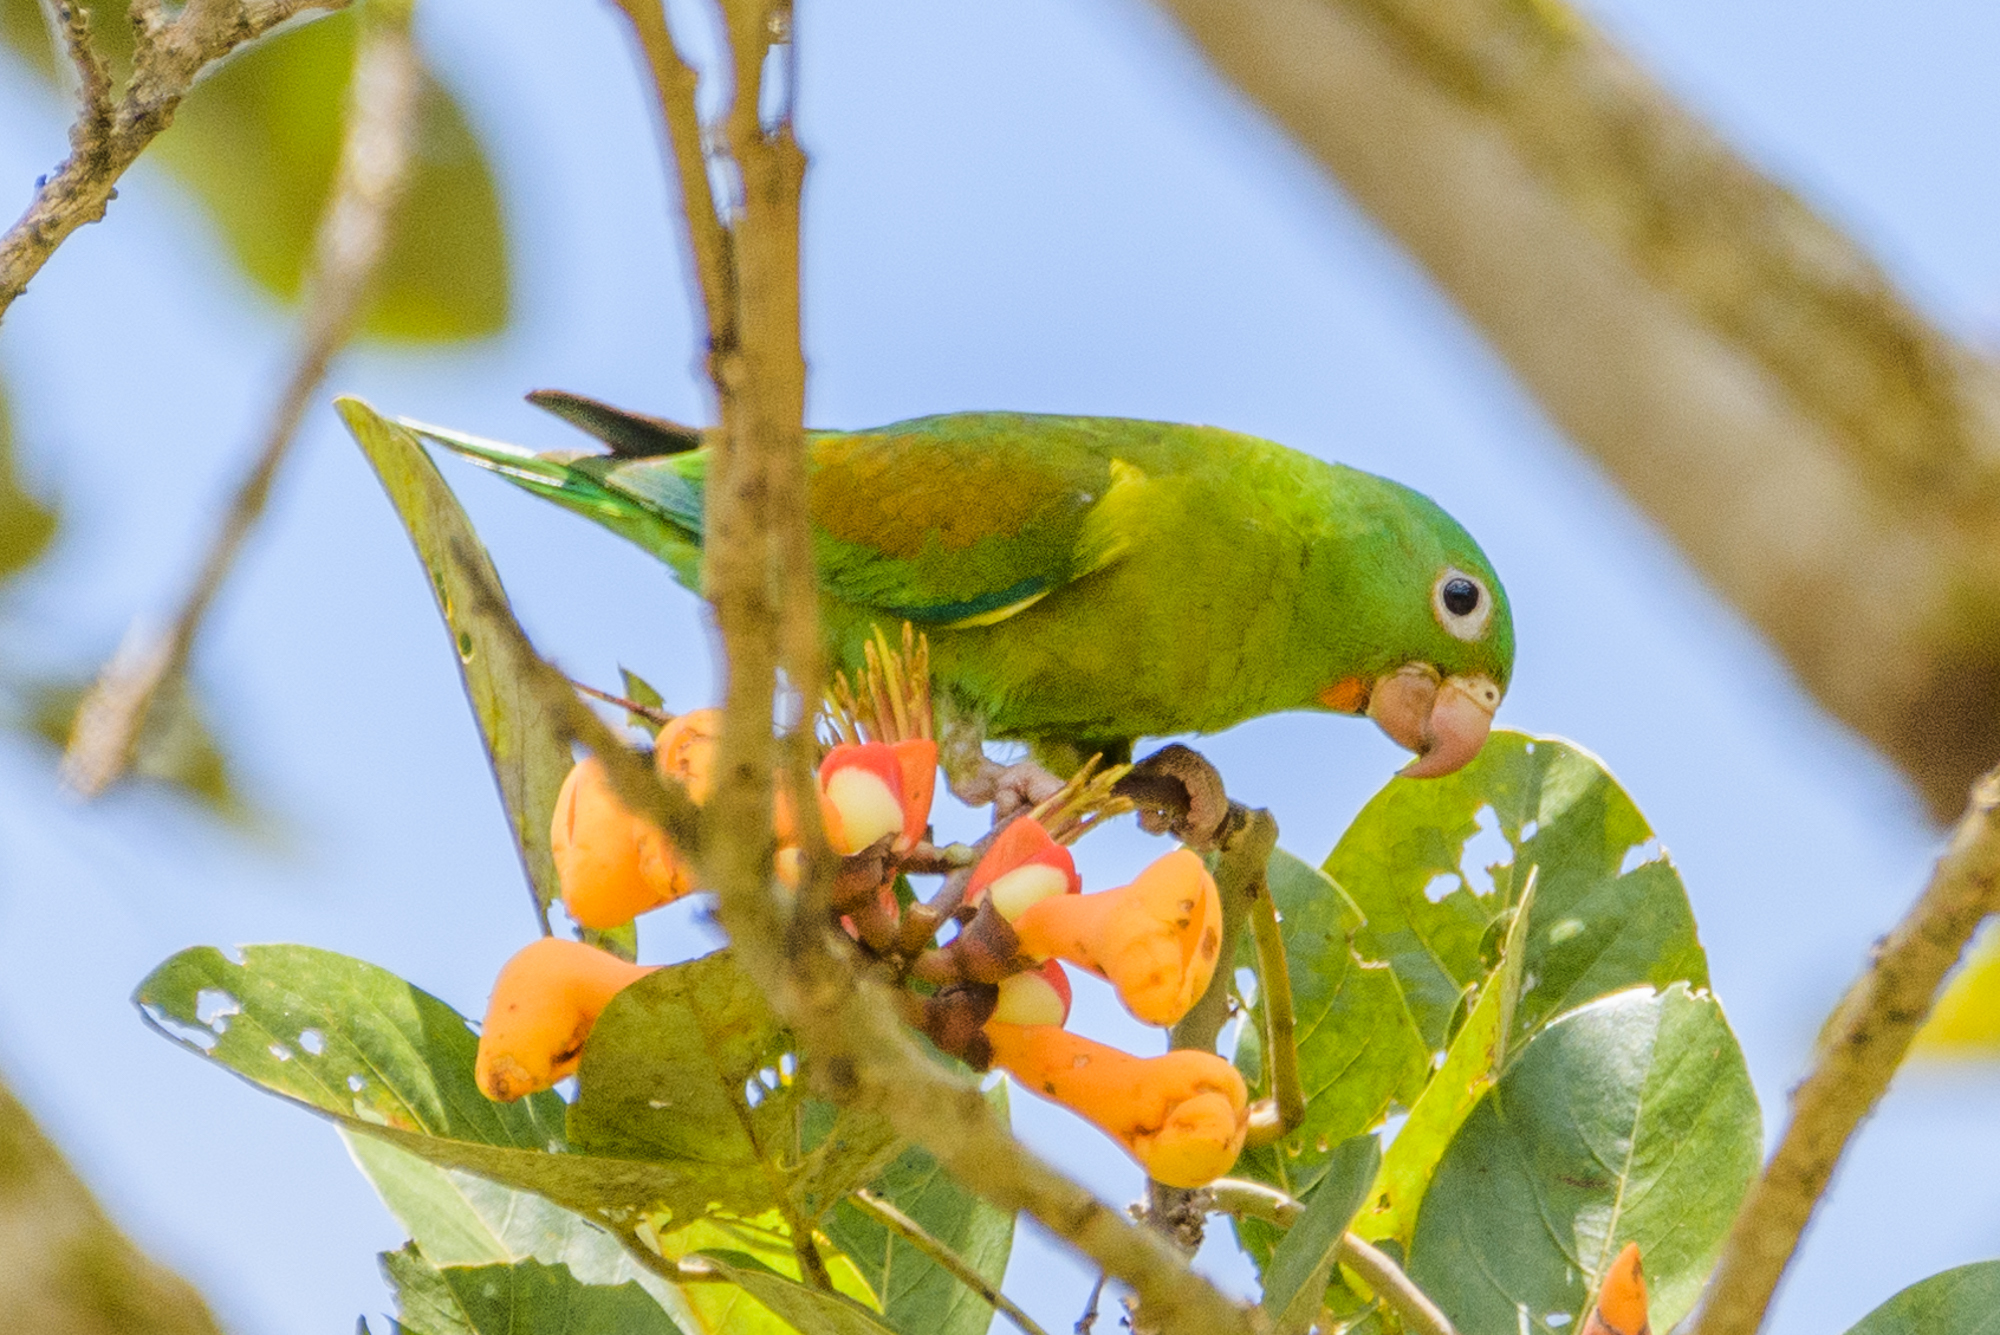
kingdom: Animalia
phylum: Chordata
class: Aves
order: Psittaciformes
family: Psittacidae
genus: Brotogeris
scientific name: Brotogeris jugularis
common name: Orange-chinned parakeet
